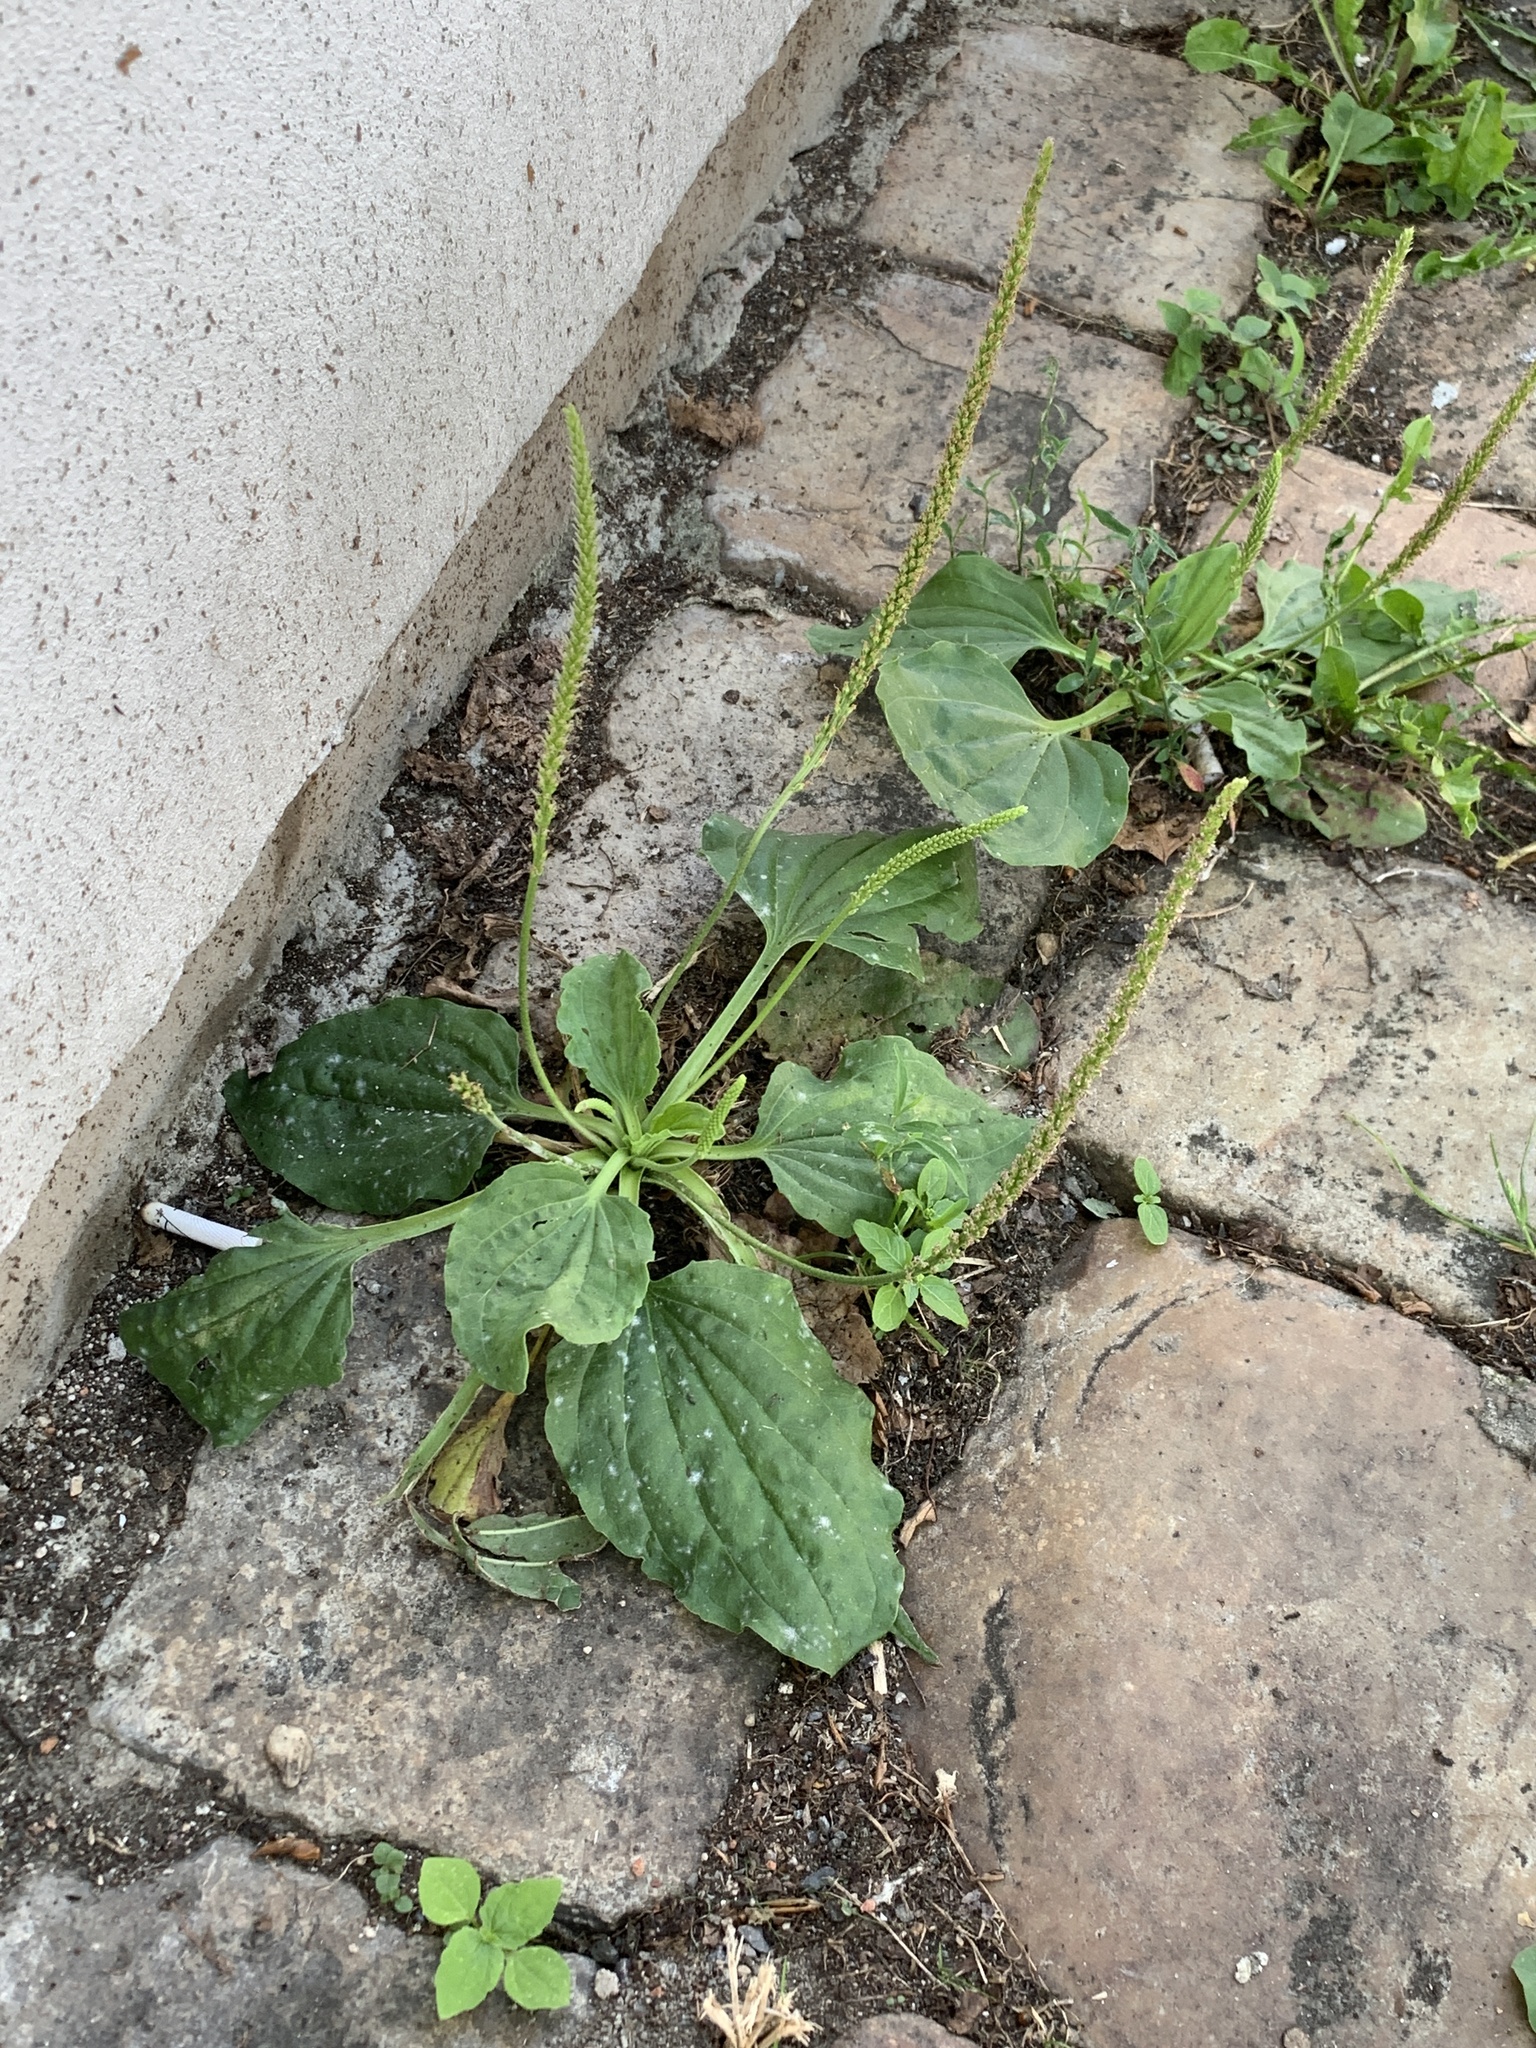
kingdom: Plantae
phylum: Tracheophyta
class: Magnoliopsida
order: Lamiales
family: Plantaginaceae
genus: Plantago
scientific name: Plantago major
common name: Common plantain
